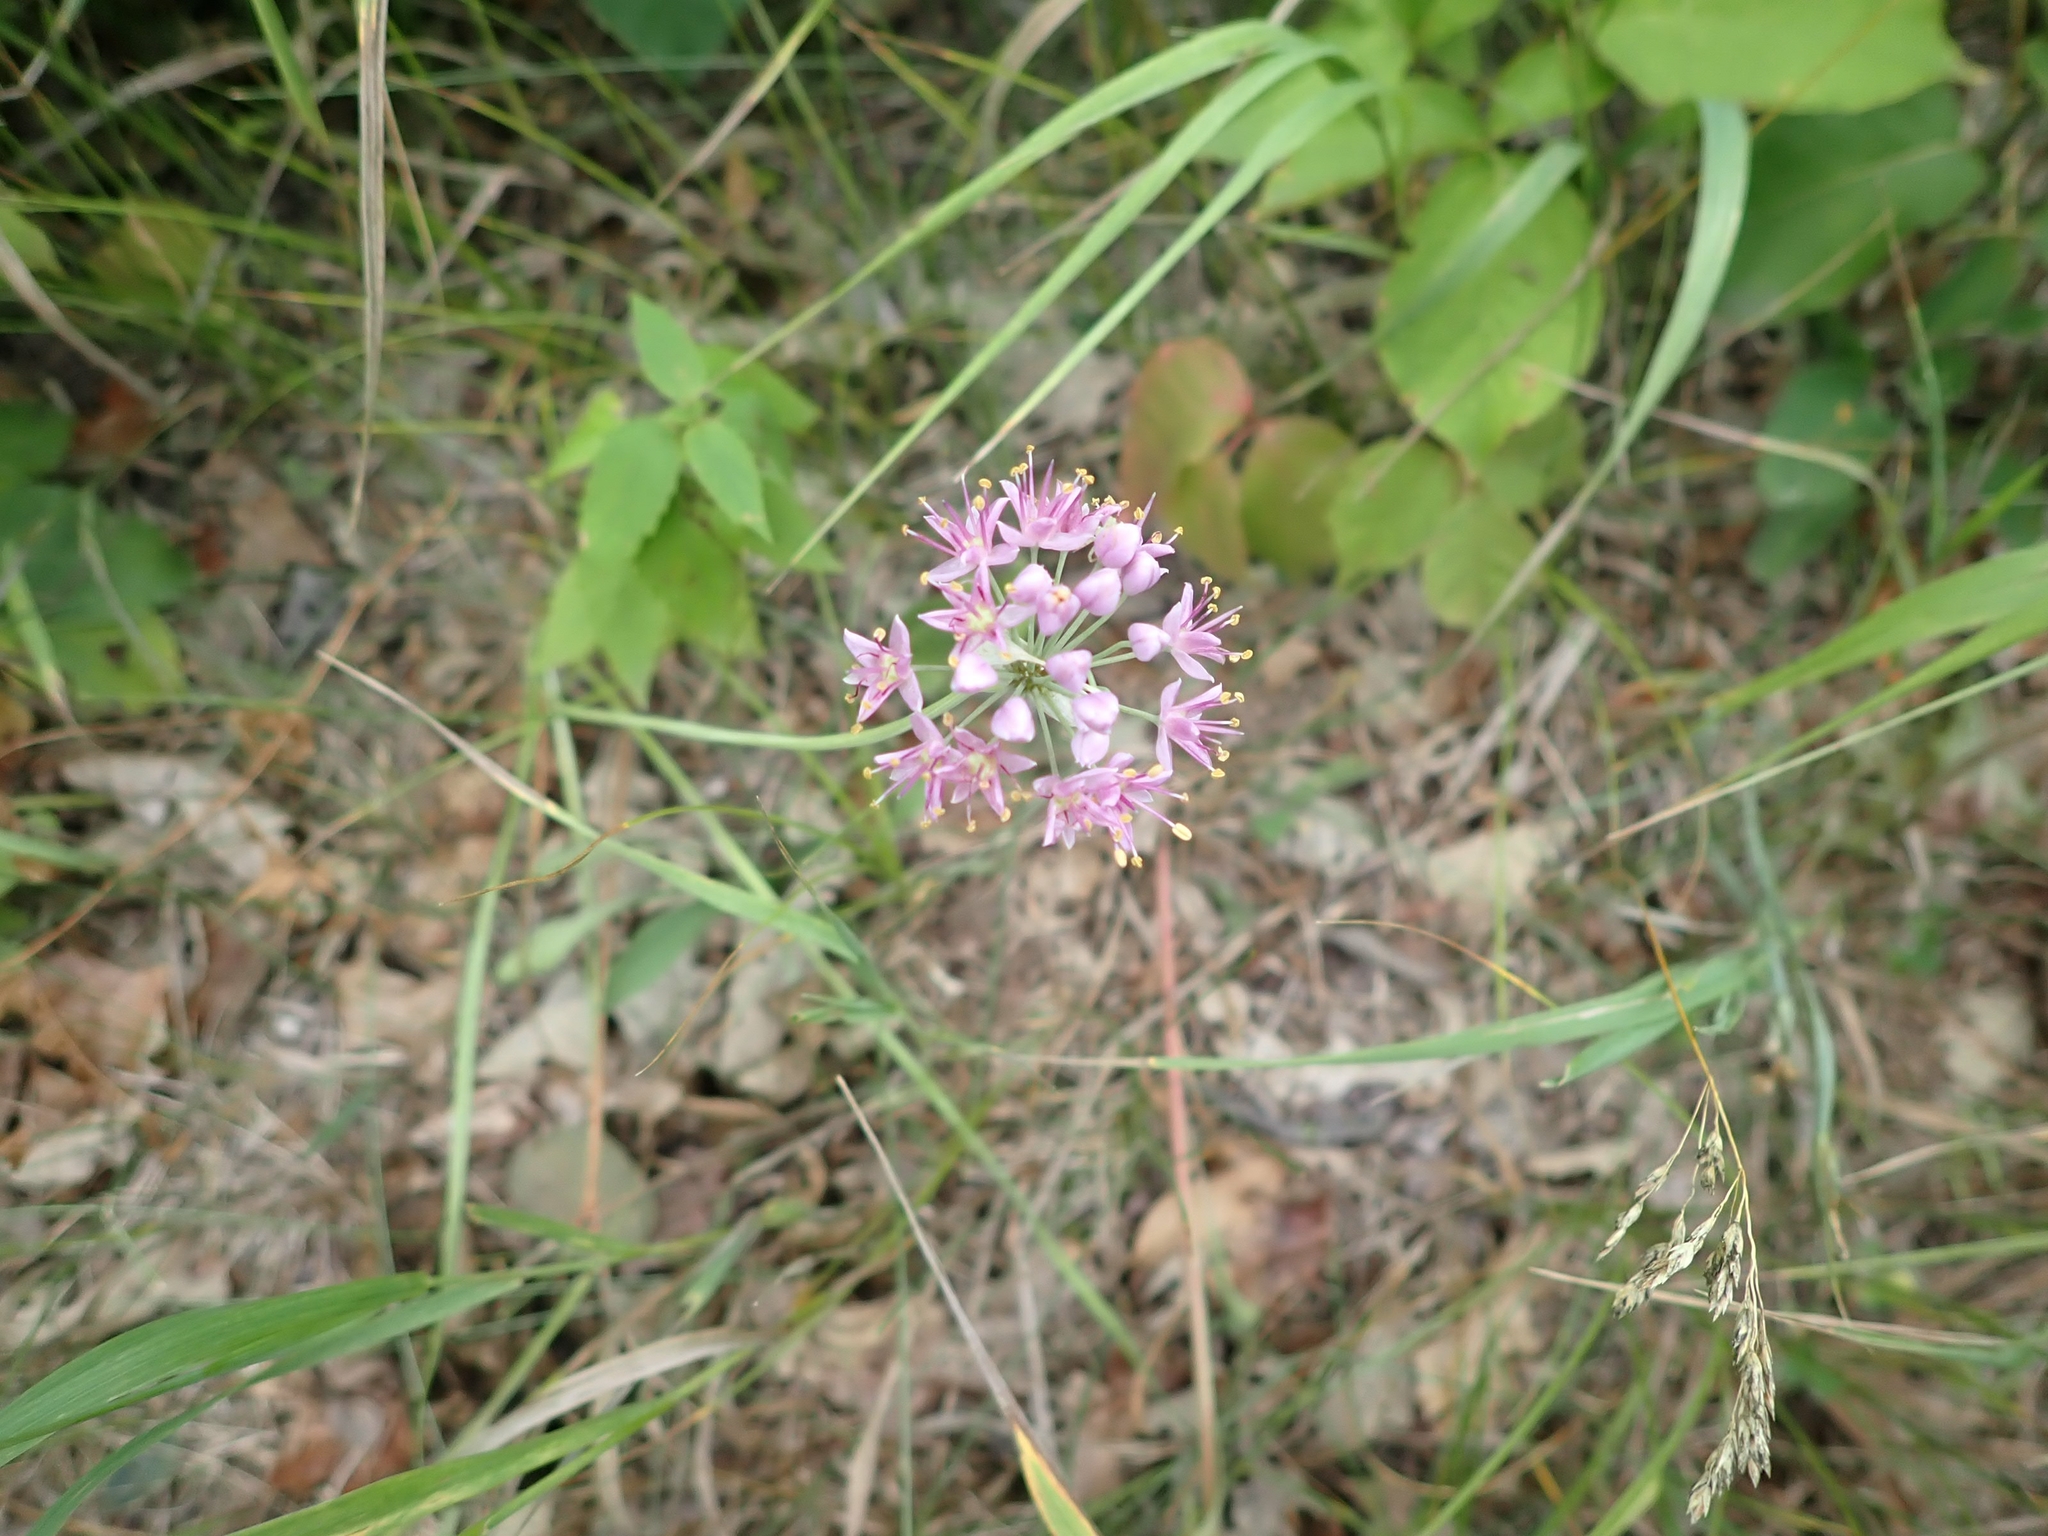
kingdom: Plantae
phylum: Tracheophyta
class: Liliopsida
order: Asparagales
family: Amaryllidaceae
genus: Allium
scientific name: Allium stellatum
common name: Autumn onion
